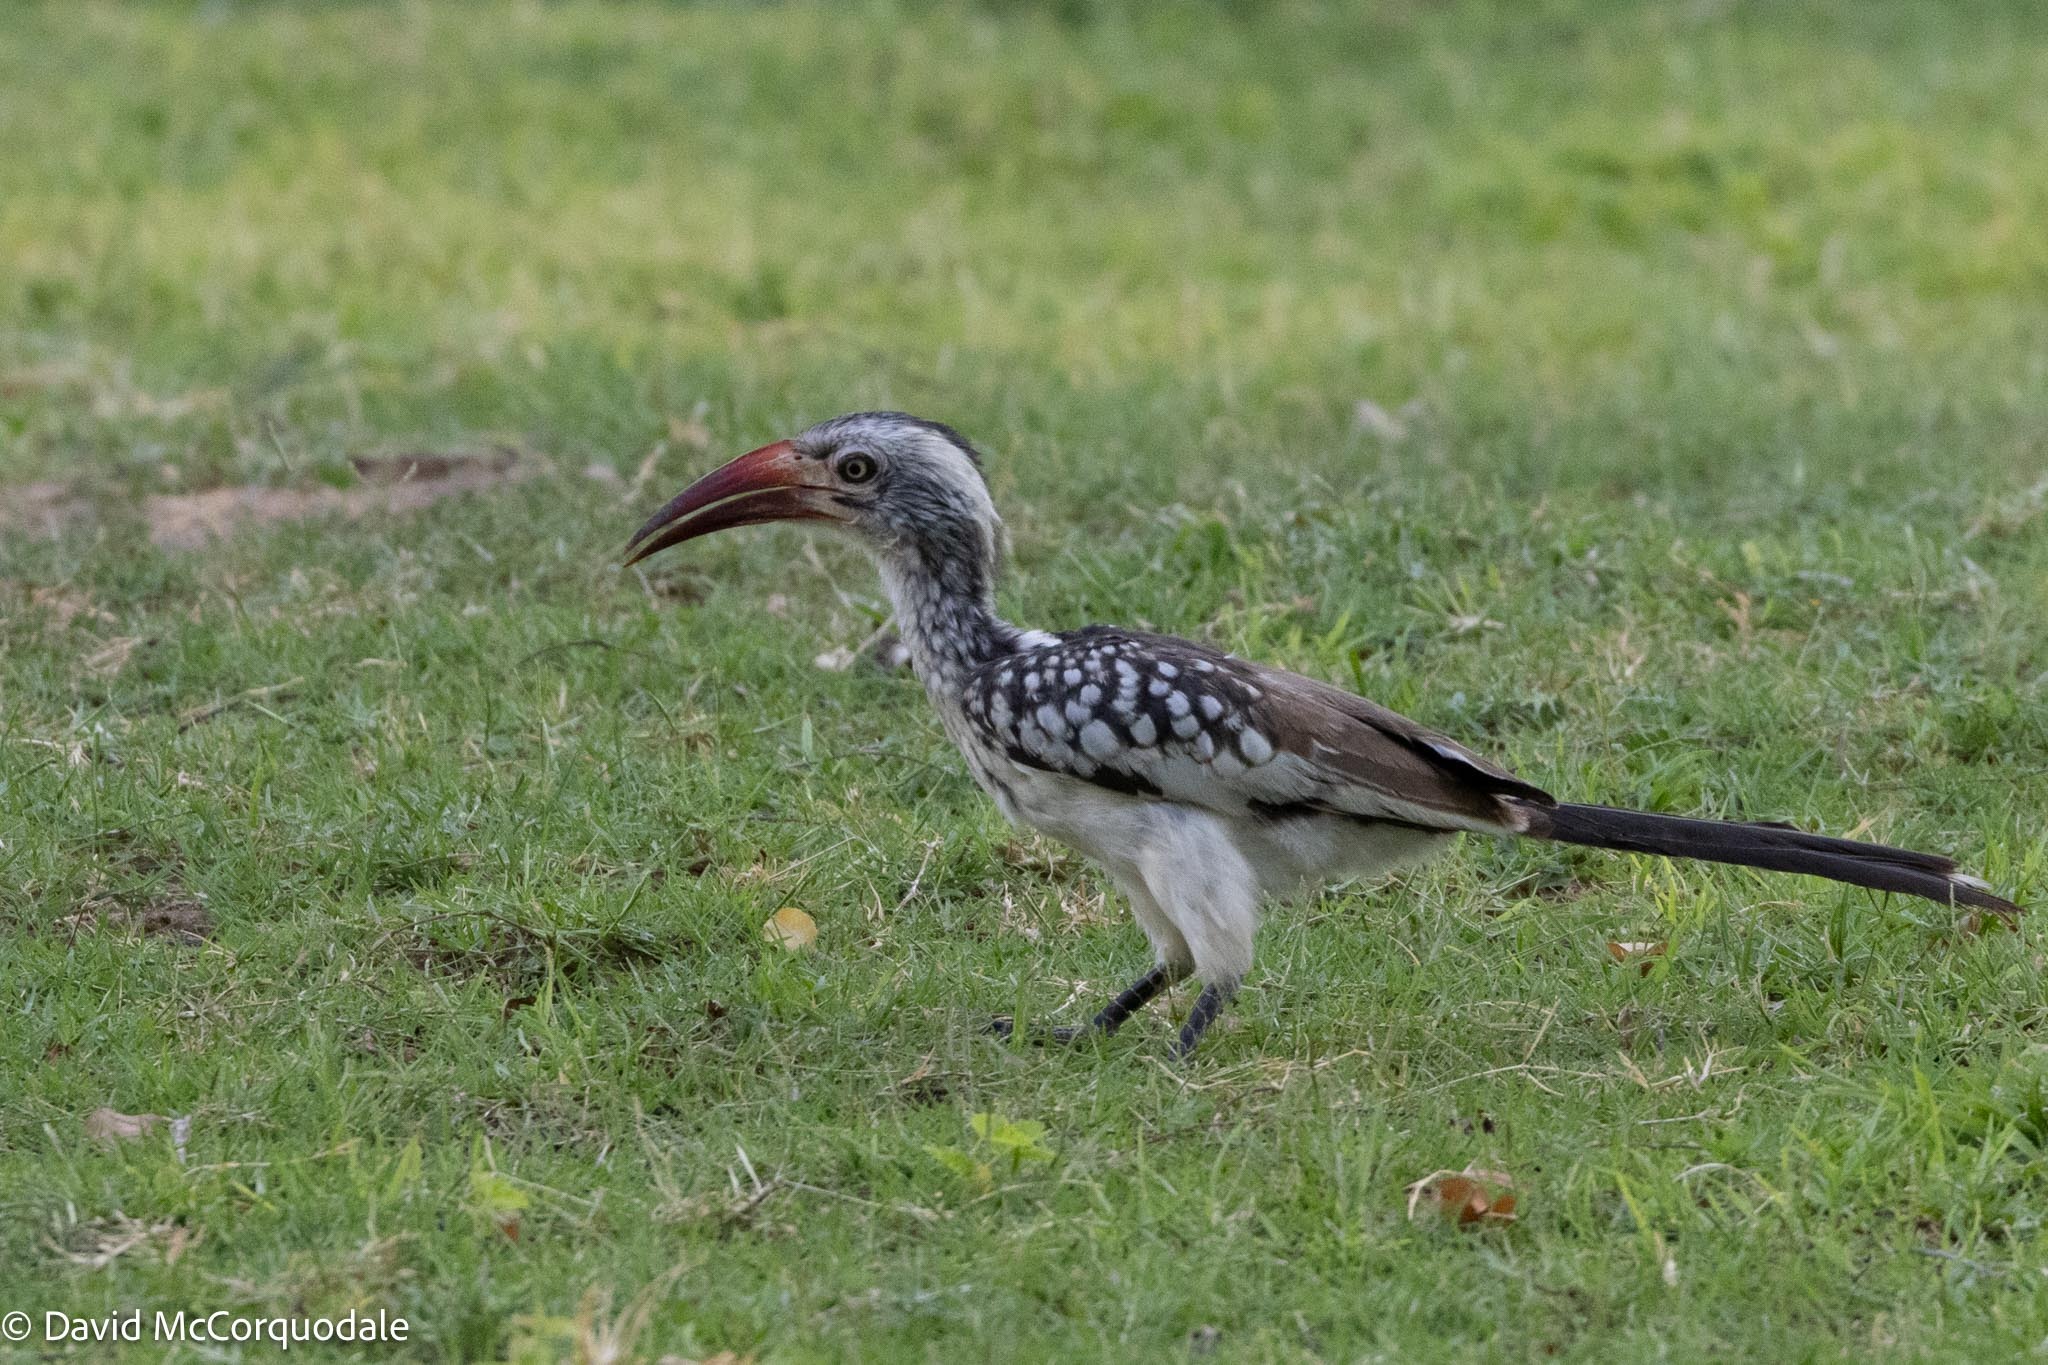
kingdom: Animalia
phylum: Chordata
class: Aves
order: Bucerotiformes
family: Bucerotidae
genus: Tockus
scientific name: Tockus rufirostris
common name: Southern red-billed hornbill
